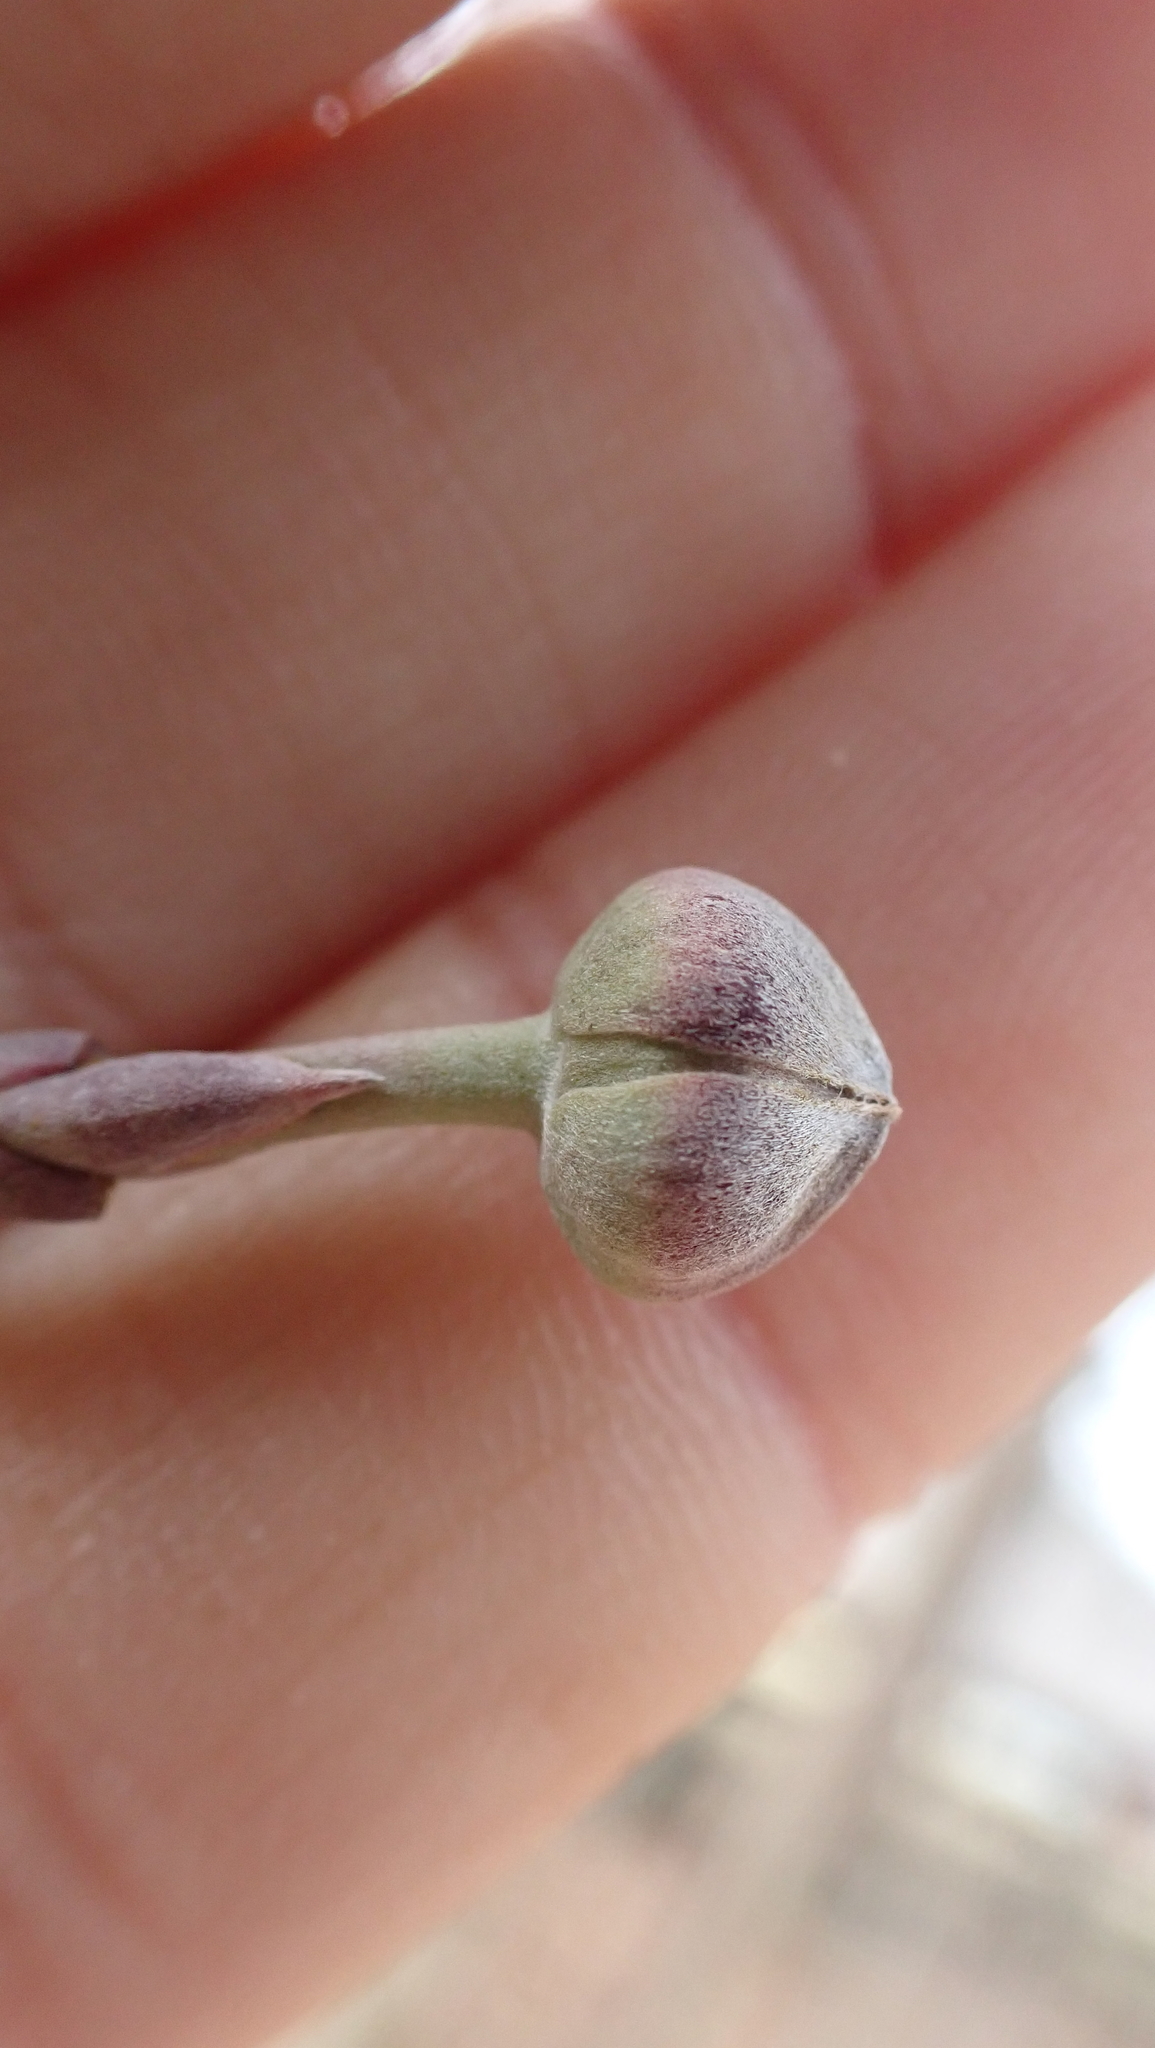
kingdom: Plantae
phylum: Tracheophyta
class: Magnoliopsida
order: Cornales
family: Cornaceae
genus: Cornus
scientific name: Cornus florida
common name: Flowering dogwood
